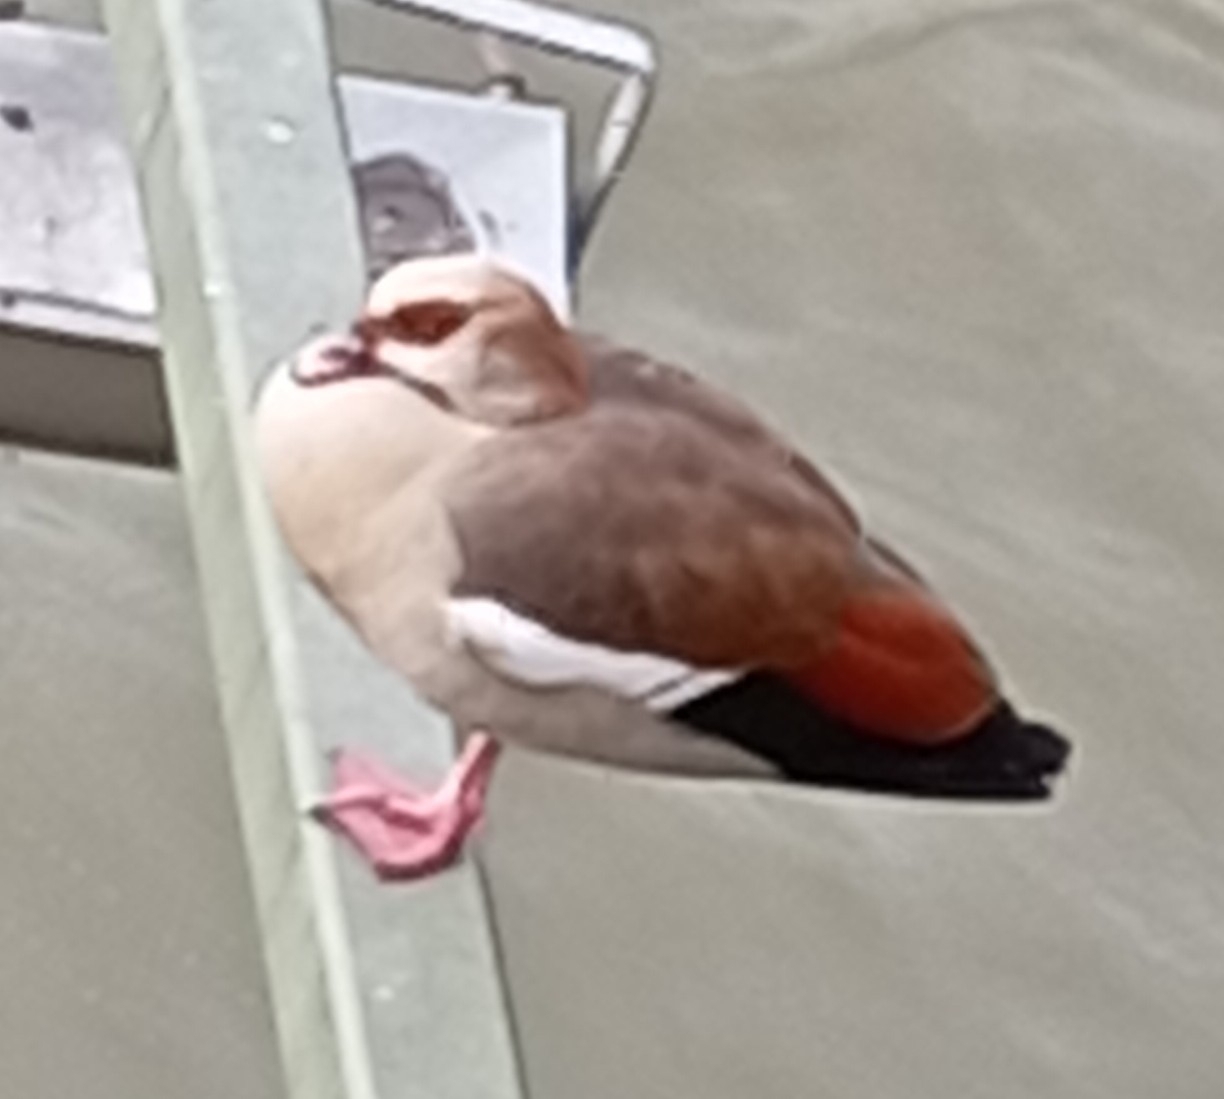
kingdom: Animalia
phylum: Chordata
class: Aves
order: Anseriformes
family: Anatidae
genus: Alopochen
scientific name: Alopochen aegyptiaca
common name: Egyptian goose
